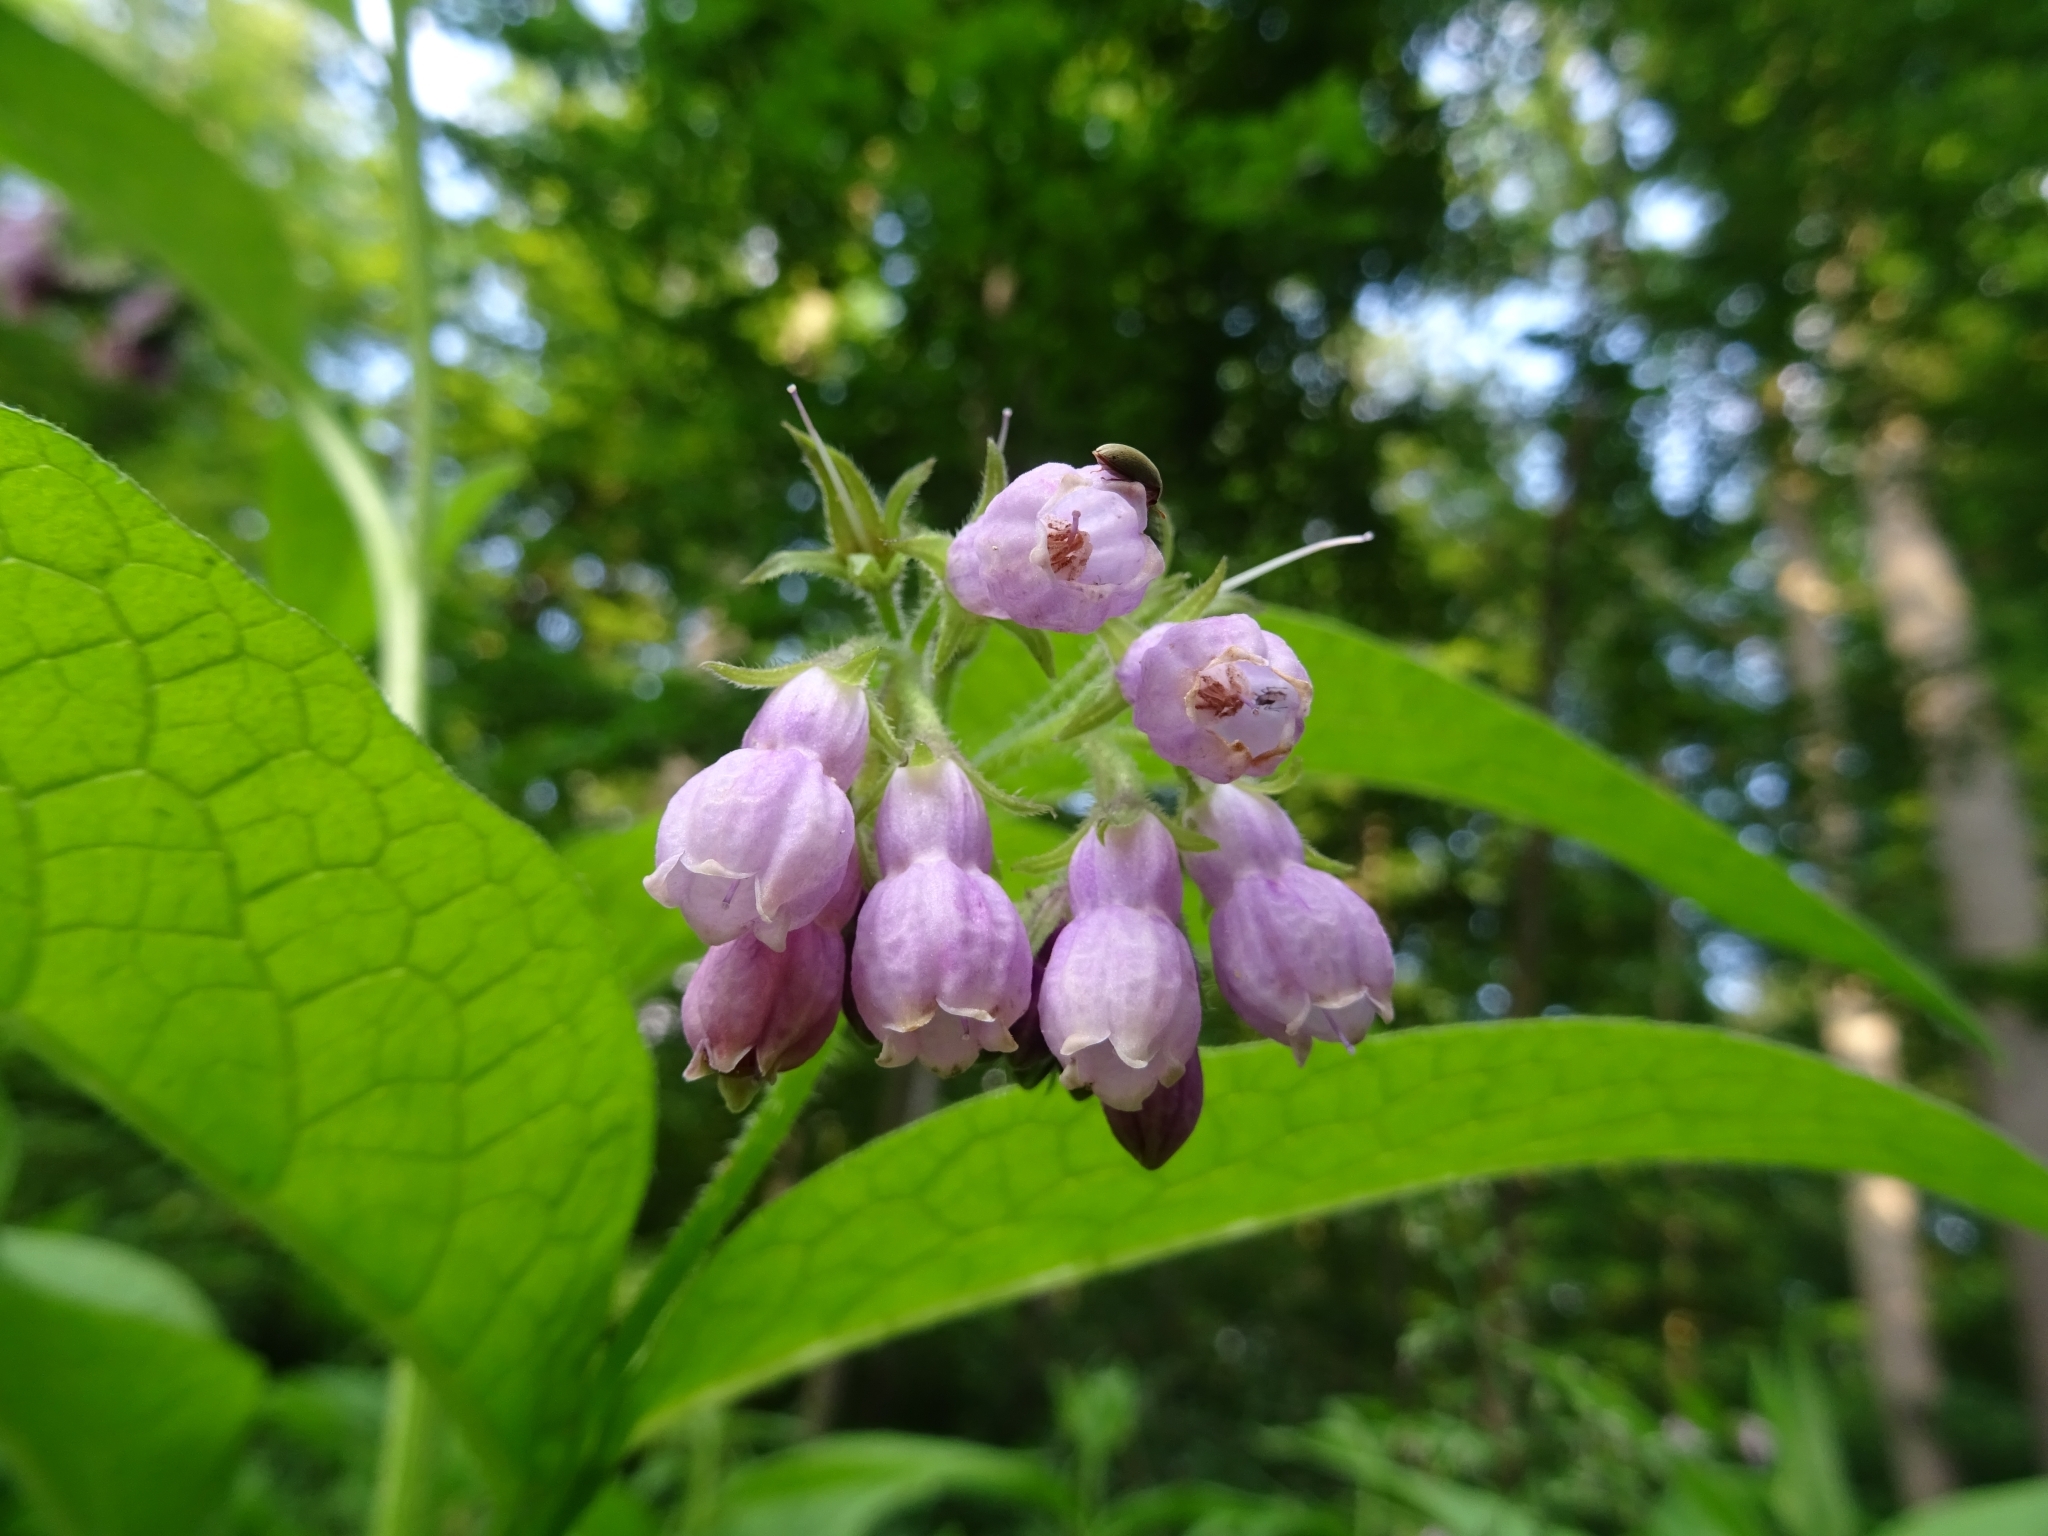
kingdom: Plantae
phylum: Tracheophyta
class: Magnoliopsida
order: Boraginales
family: Boraginaceae
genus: Symphytum
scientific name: Symphytum officinale
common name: Common comfrey
